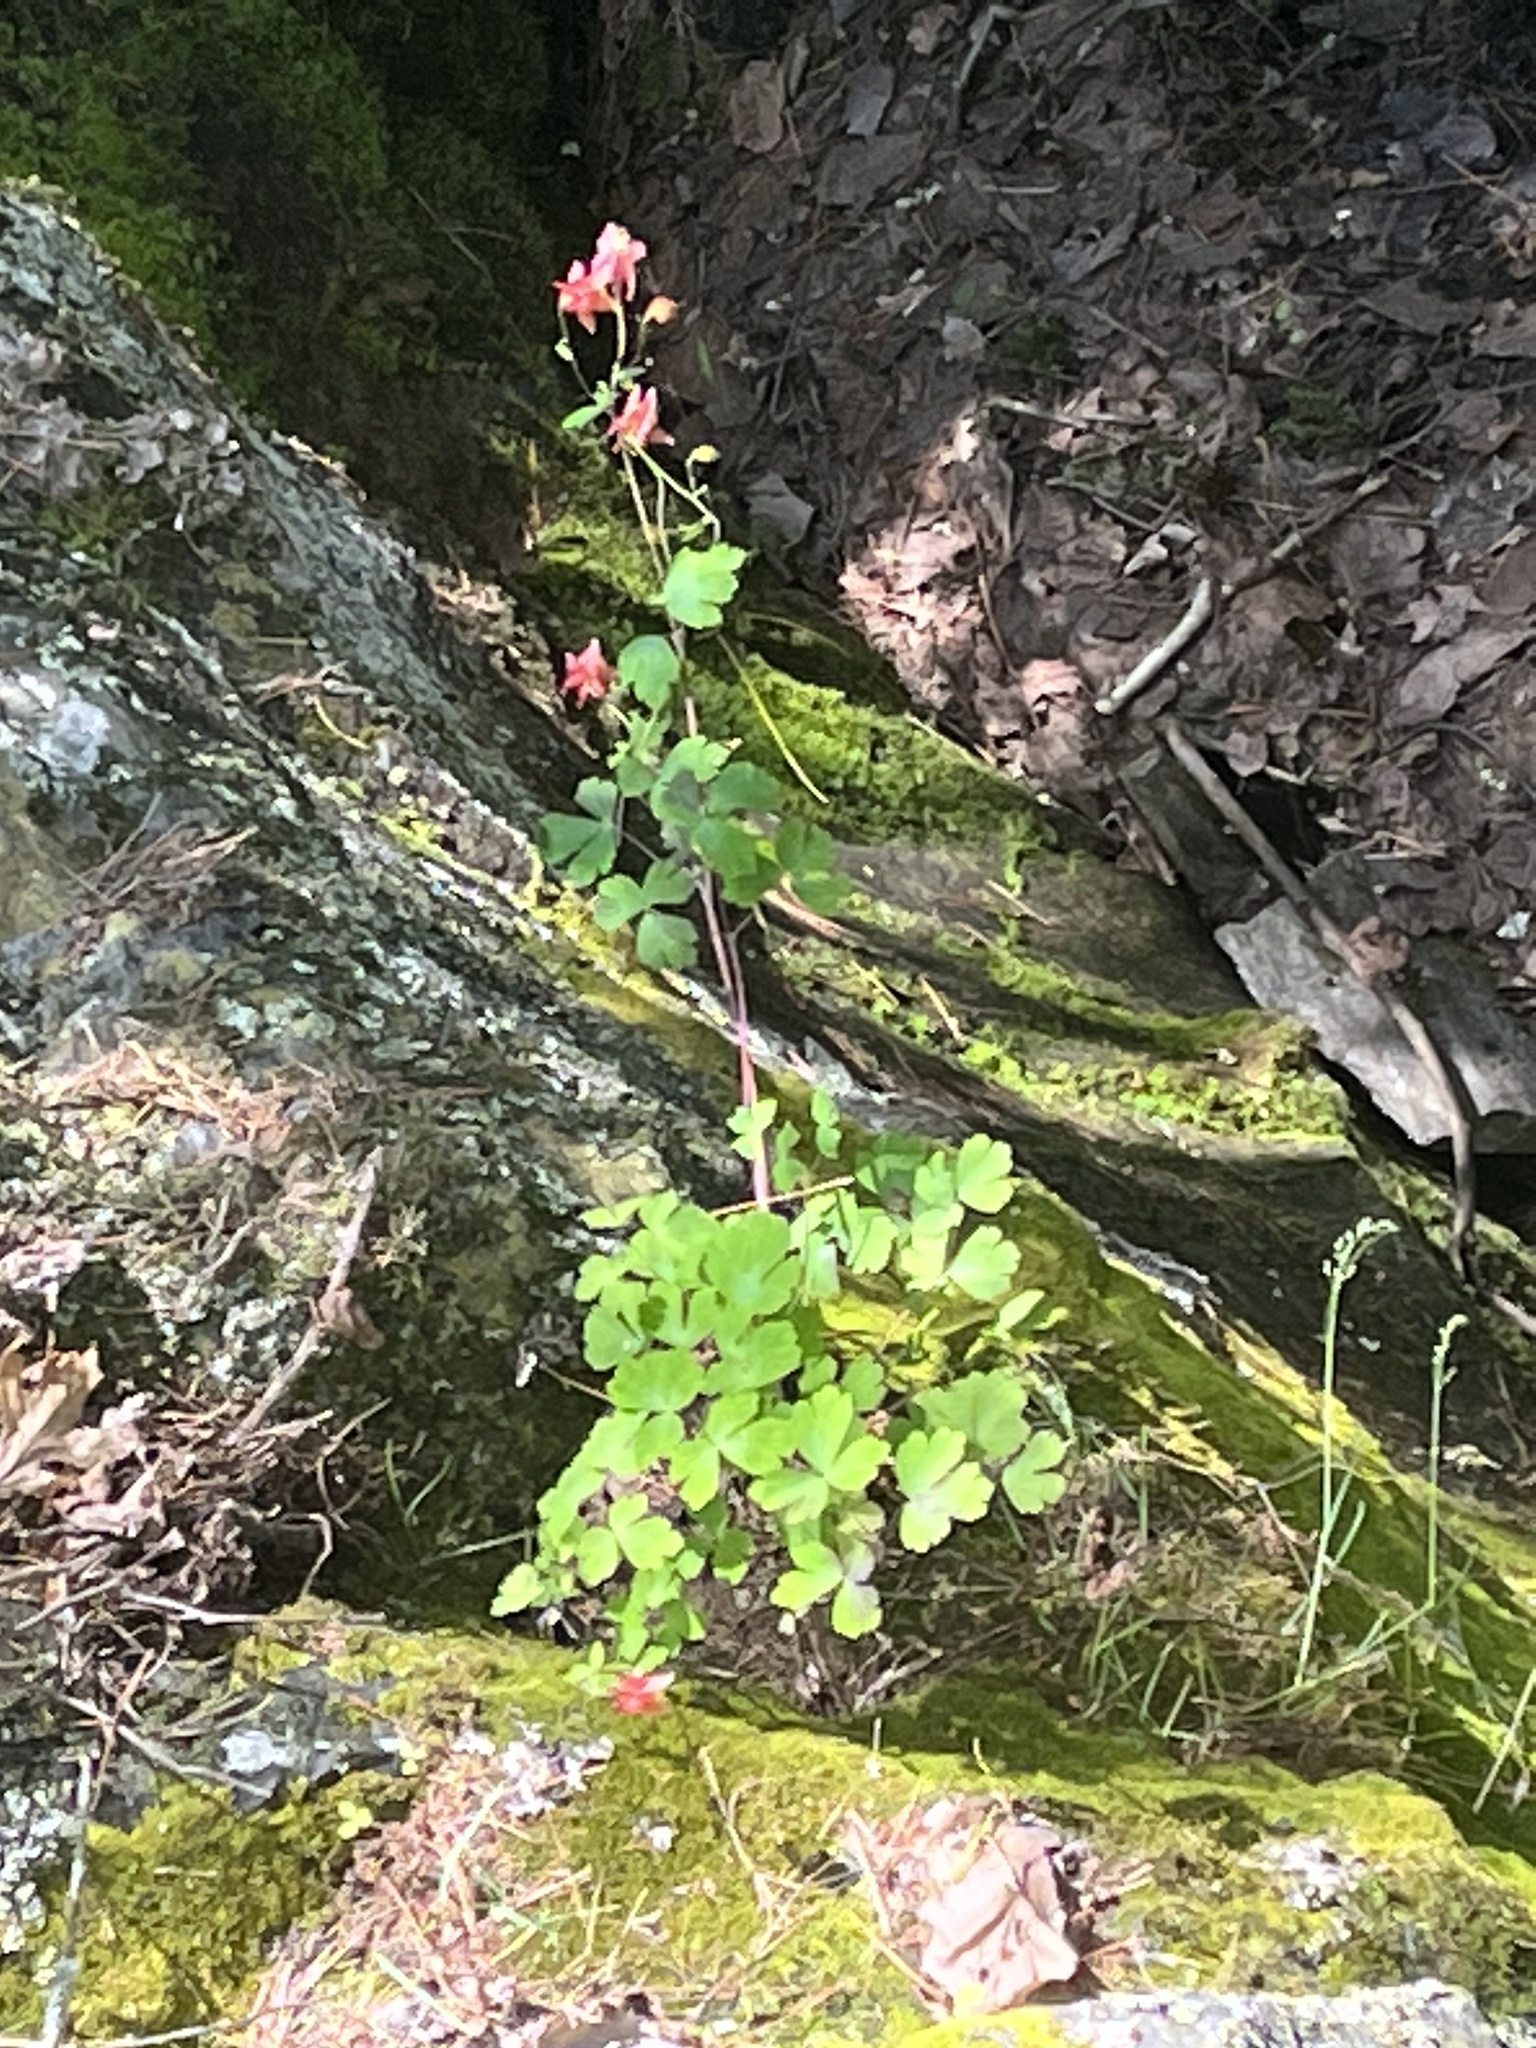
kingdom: Plantae
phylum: Tracheophyta
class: Magnoliopsida
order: Ranunculales
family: Ranunculaceae
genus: Aquilegia
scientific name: Aquilegia canadensis
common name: American columbine
